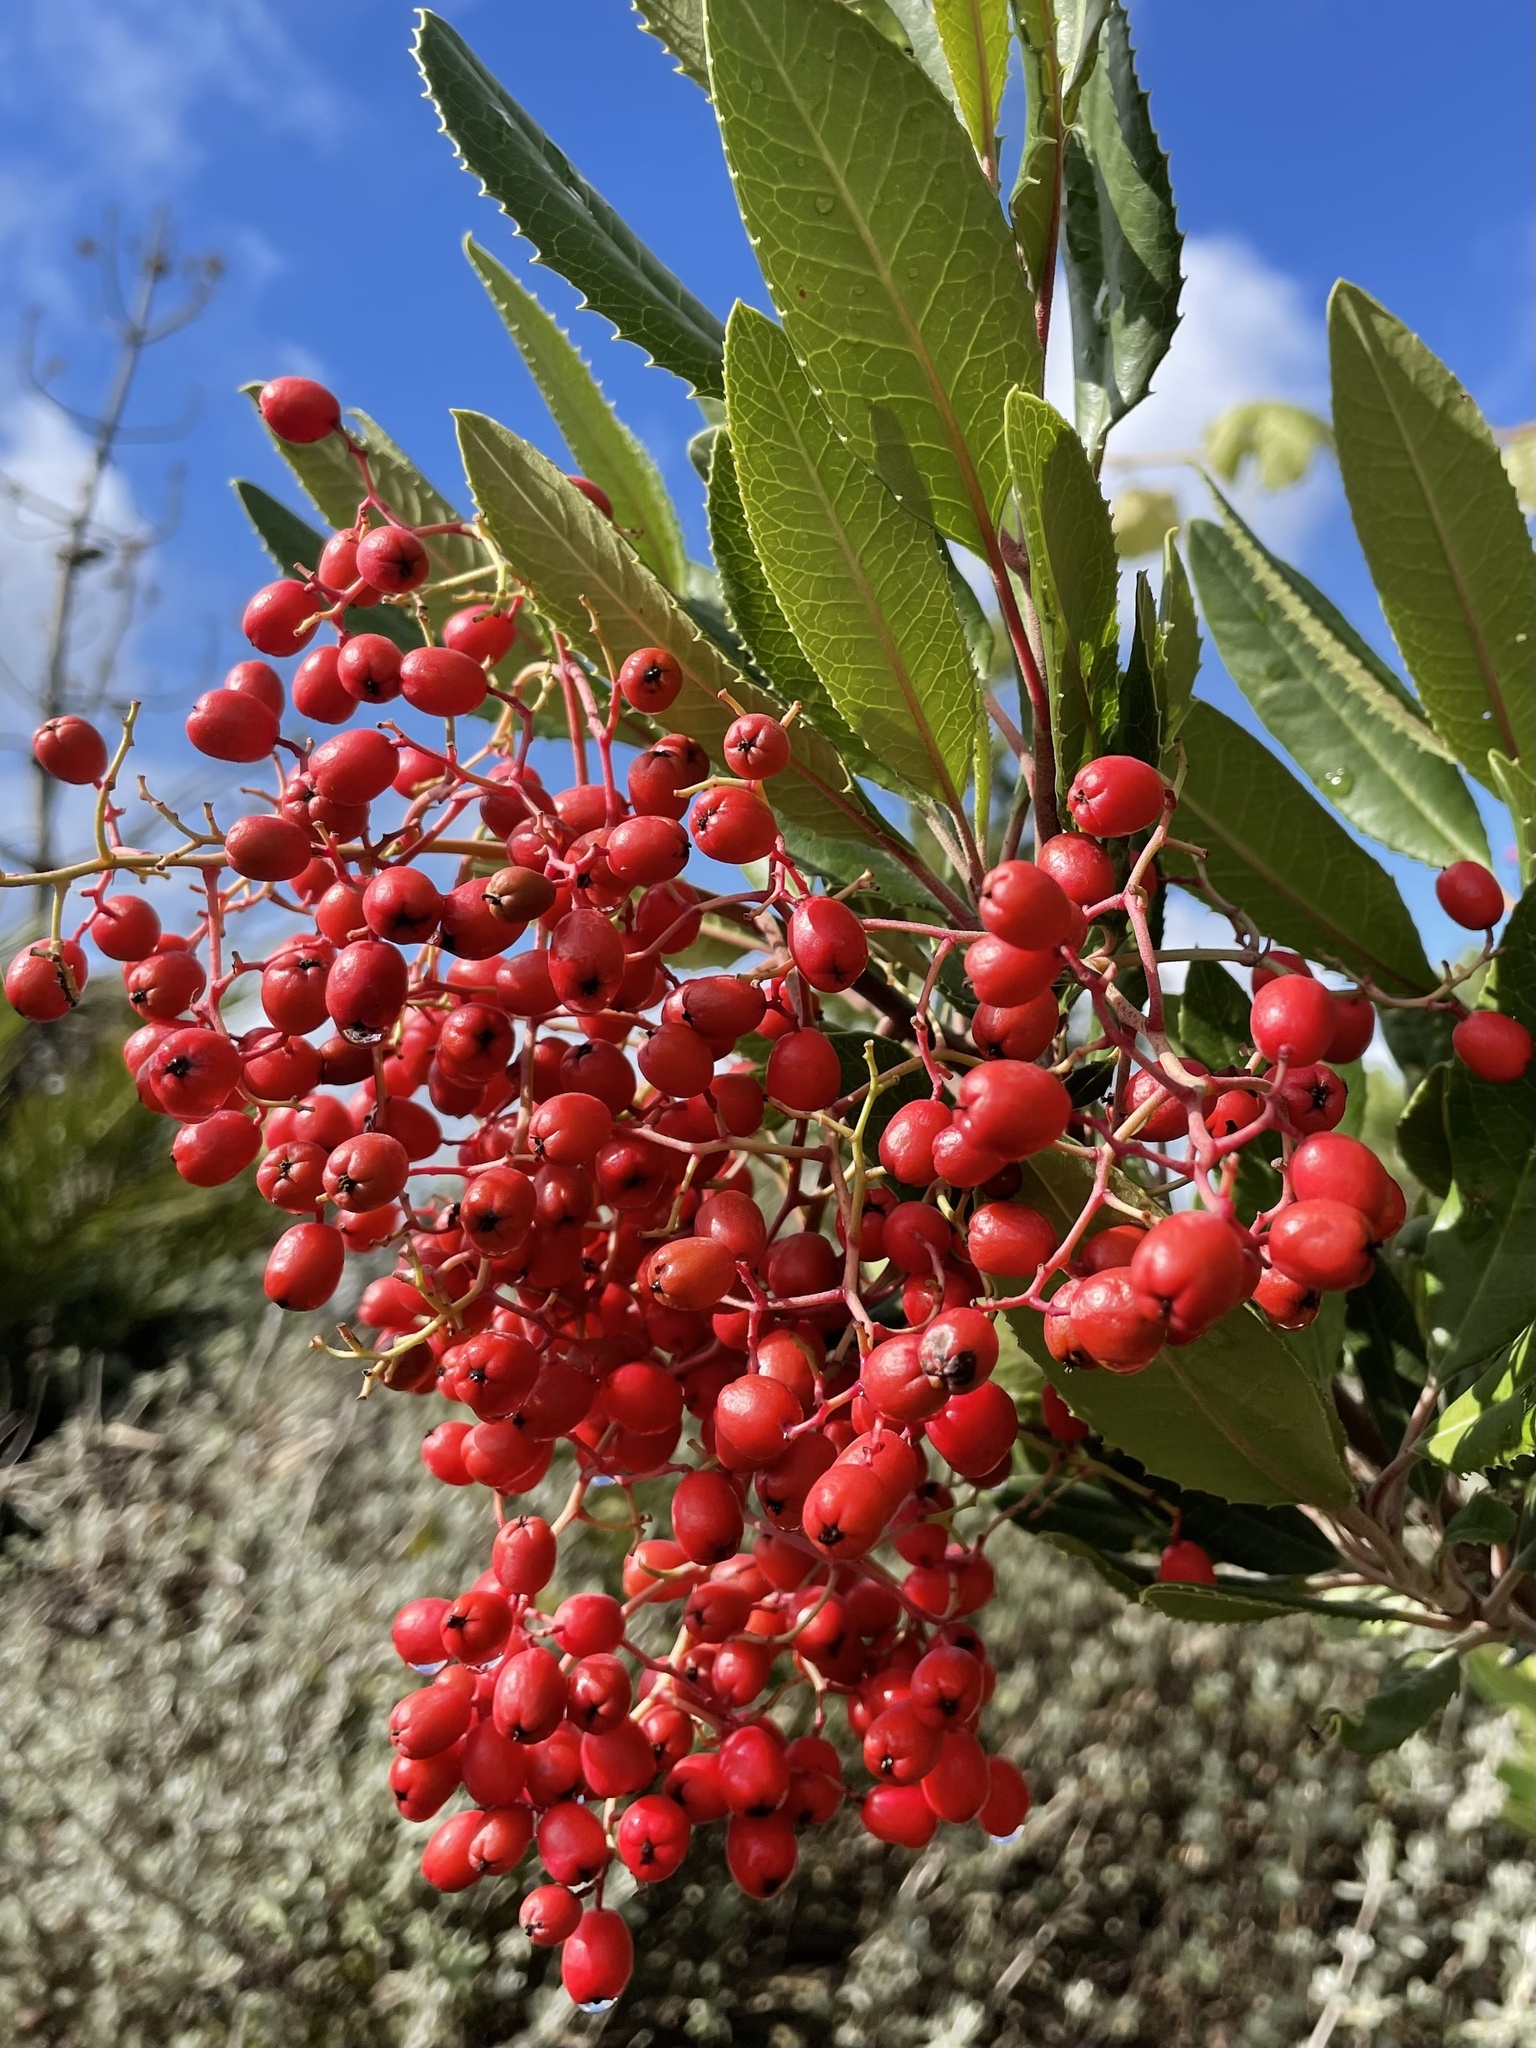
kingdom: Plantae
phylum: Tracheophyta
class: Magnoliopsida
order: Rosales
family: Rosaceae
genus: Heteromeles
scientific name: Heteromeles arbutifolia
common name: California-holly
